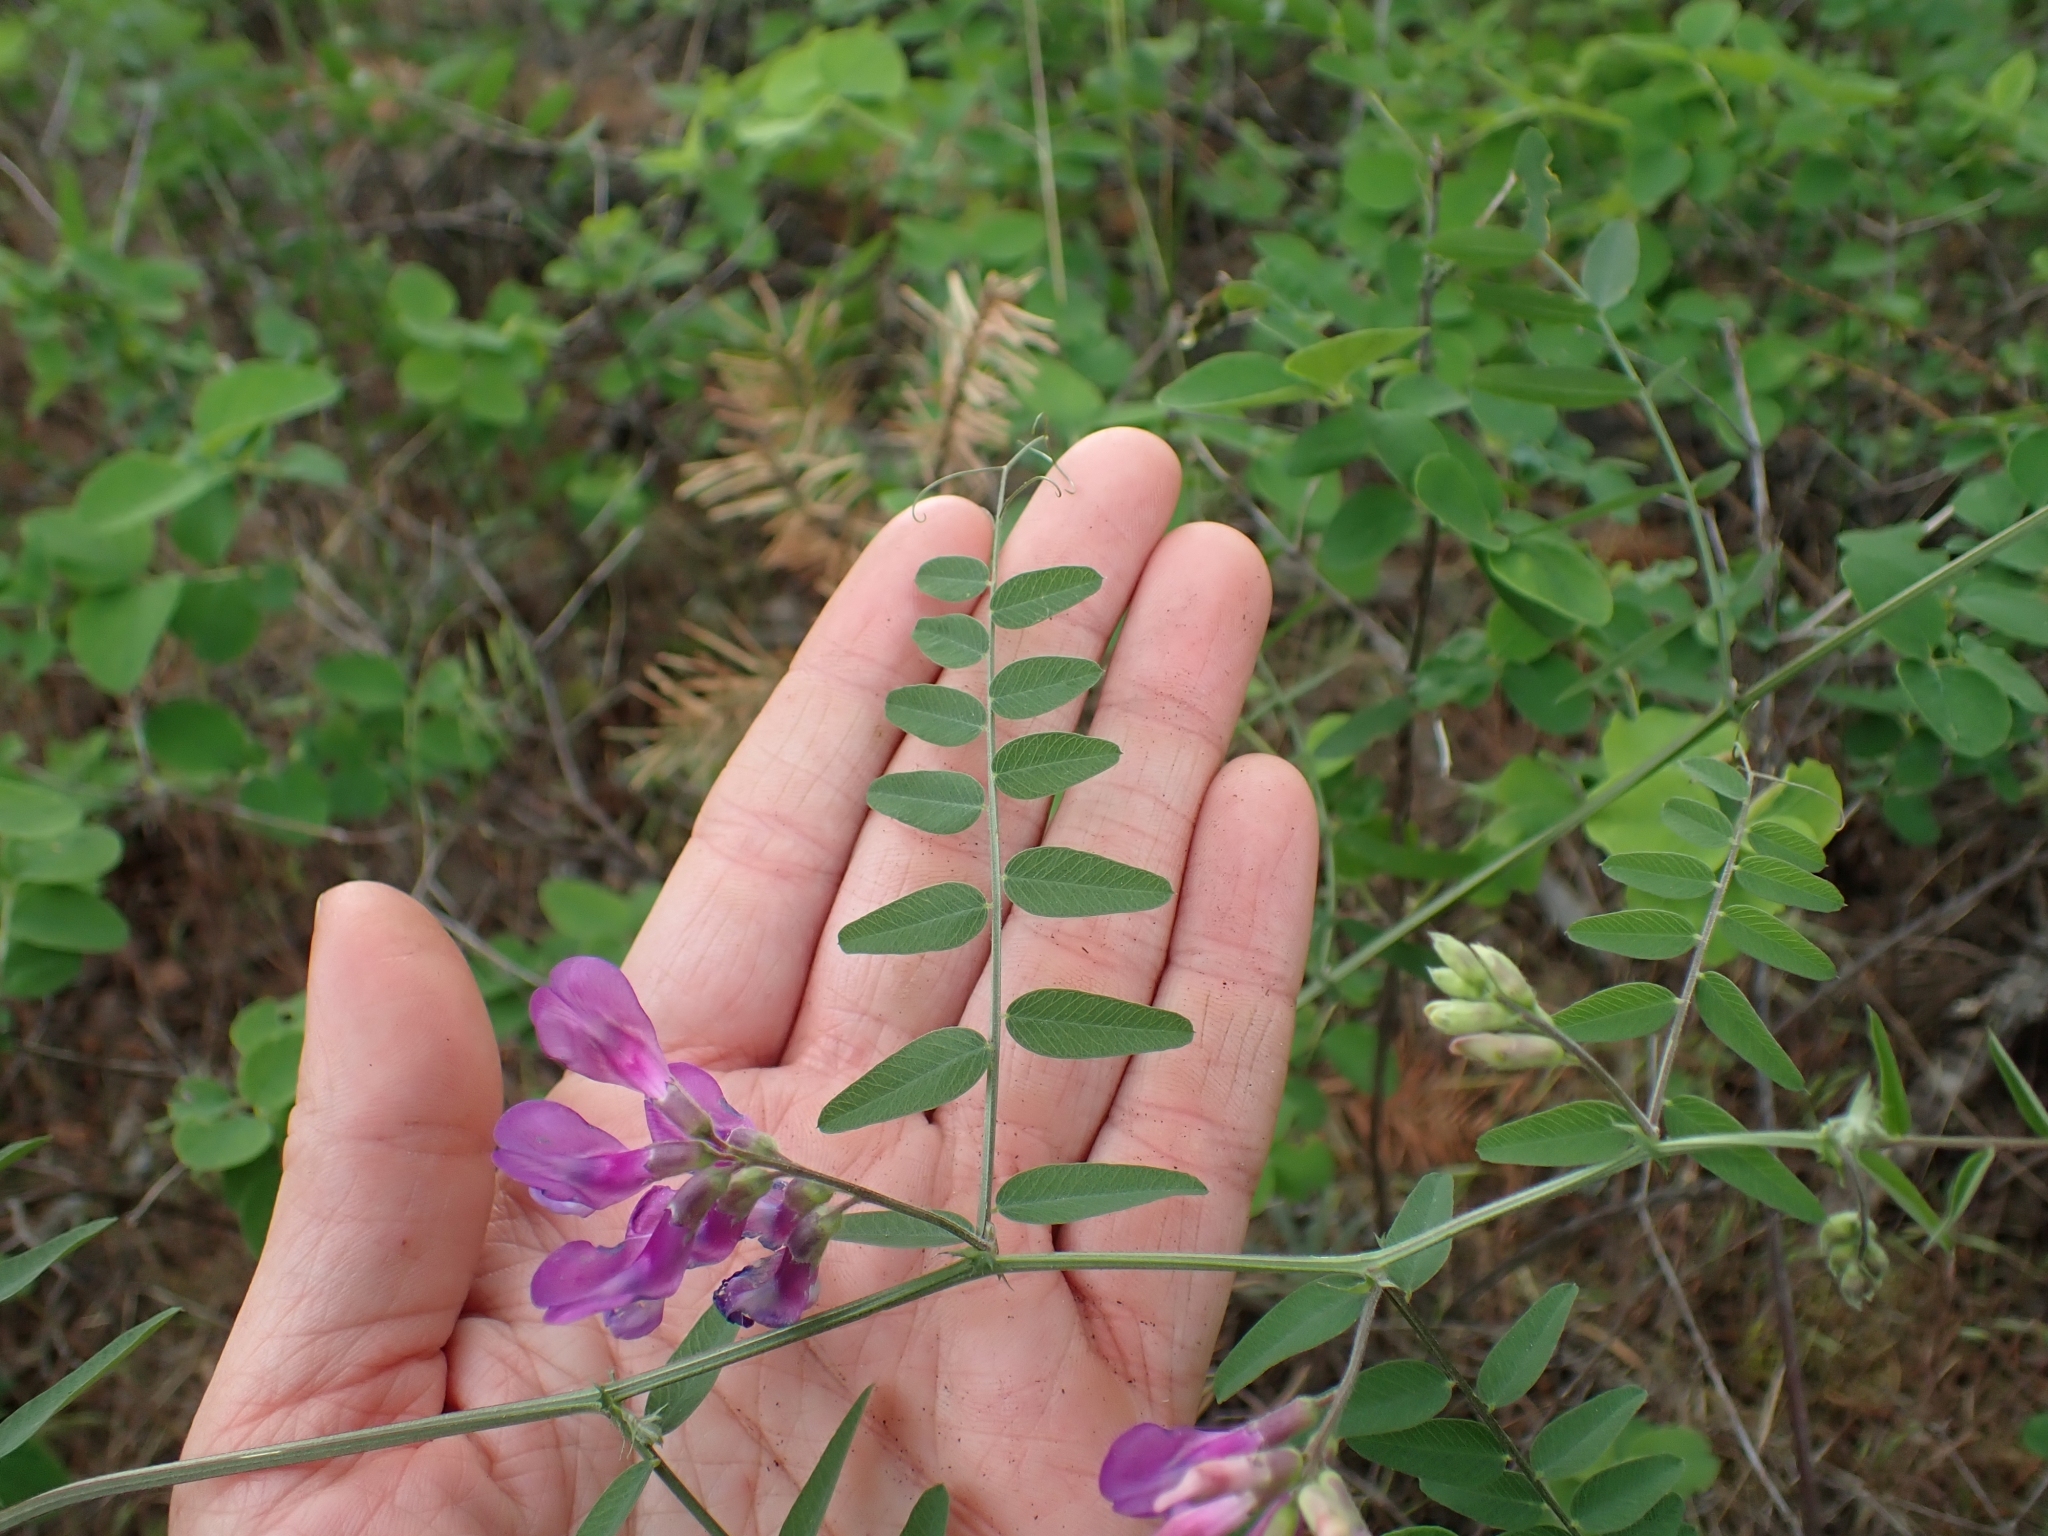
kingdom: Plantae
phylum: Tracheophyta
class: Magnoliopsida
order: Fabales
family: Fabaceae
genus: Vicia
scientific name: Vicia americana
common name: American vetch
